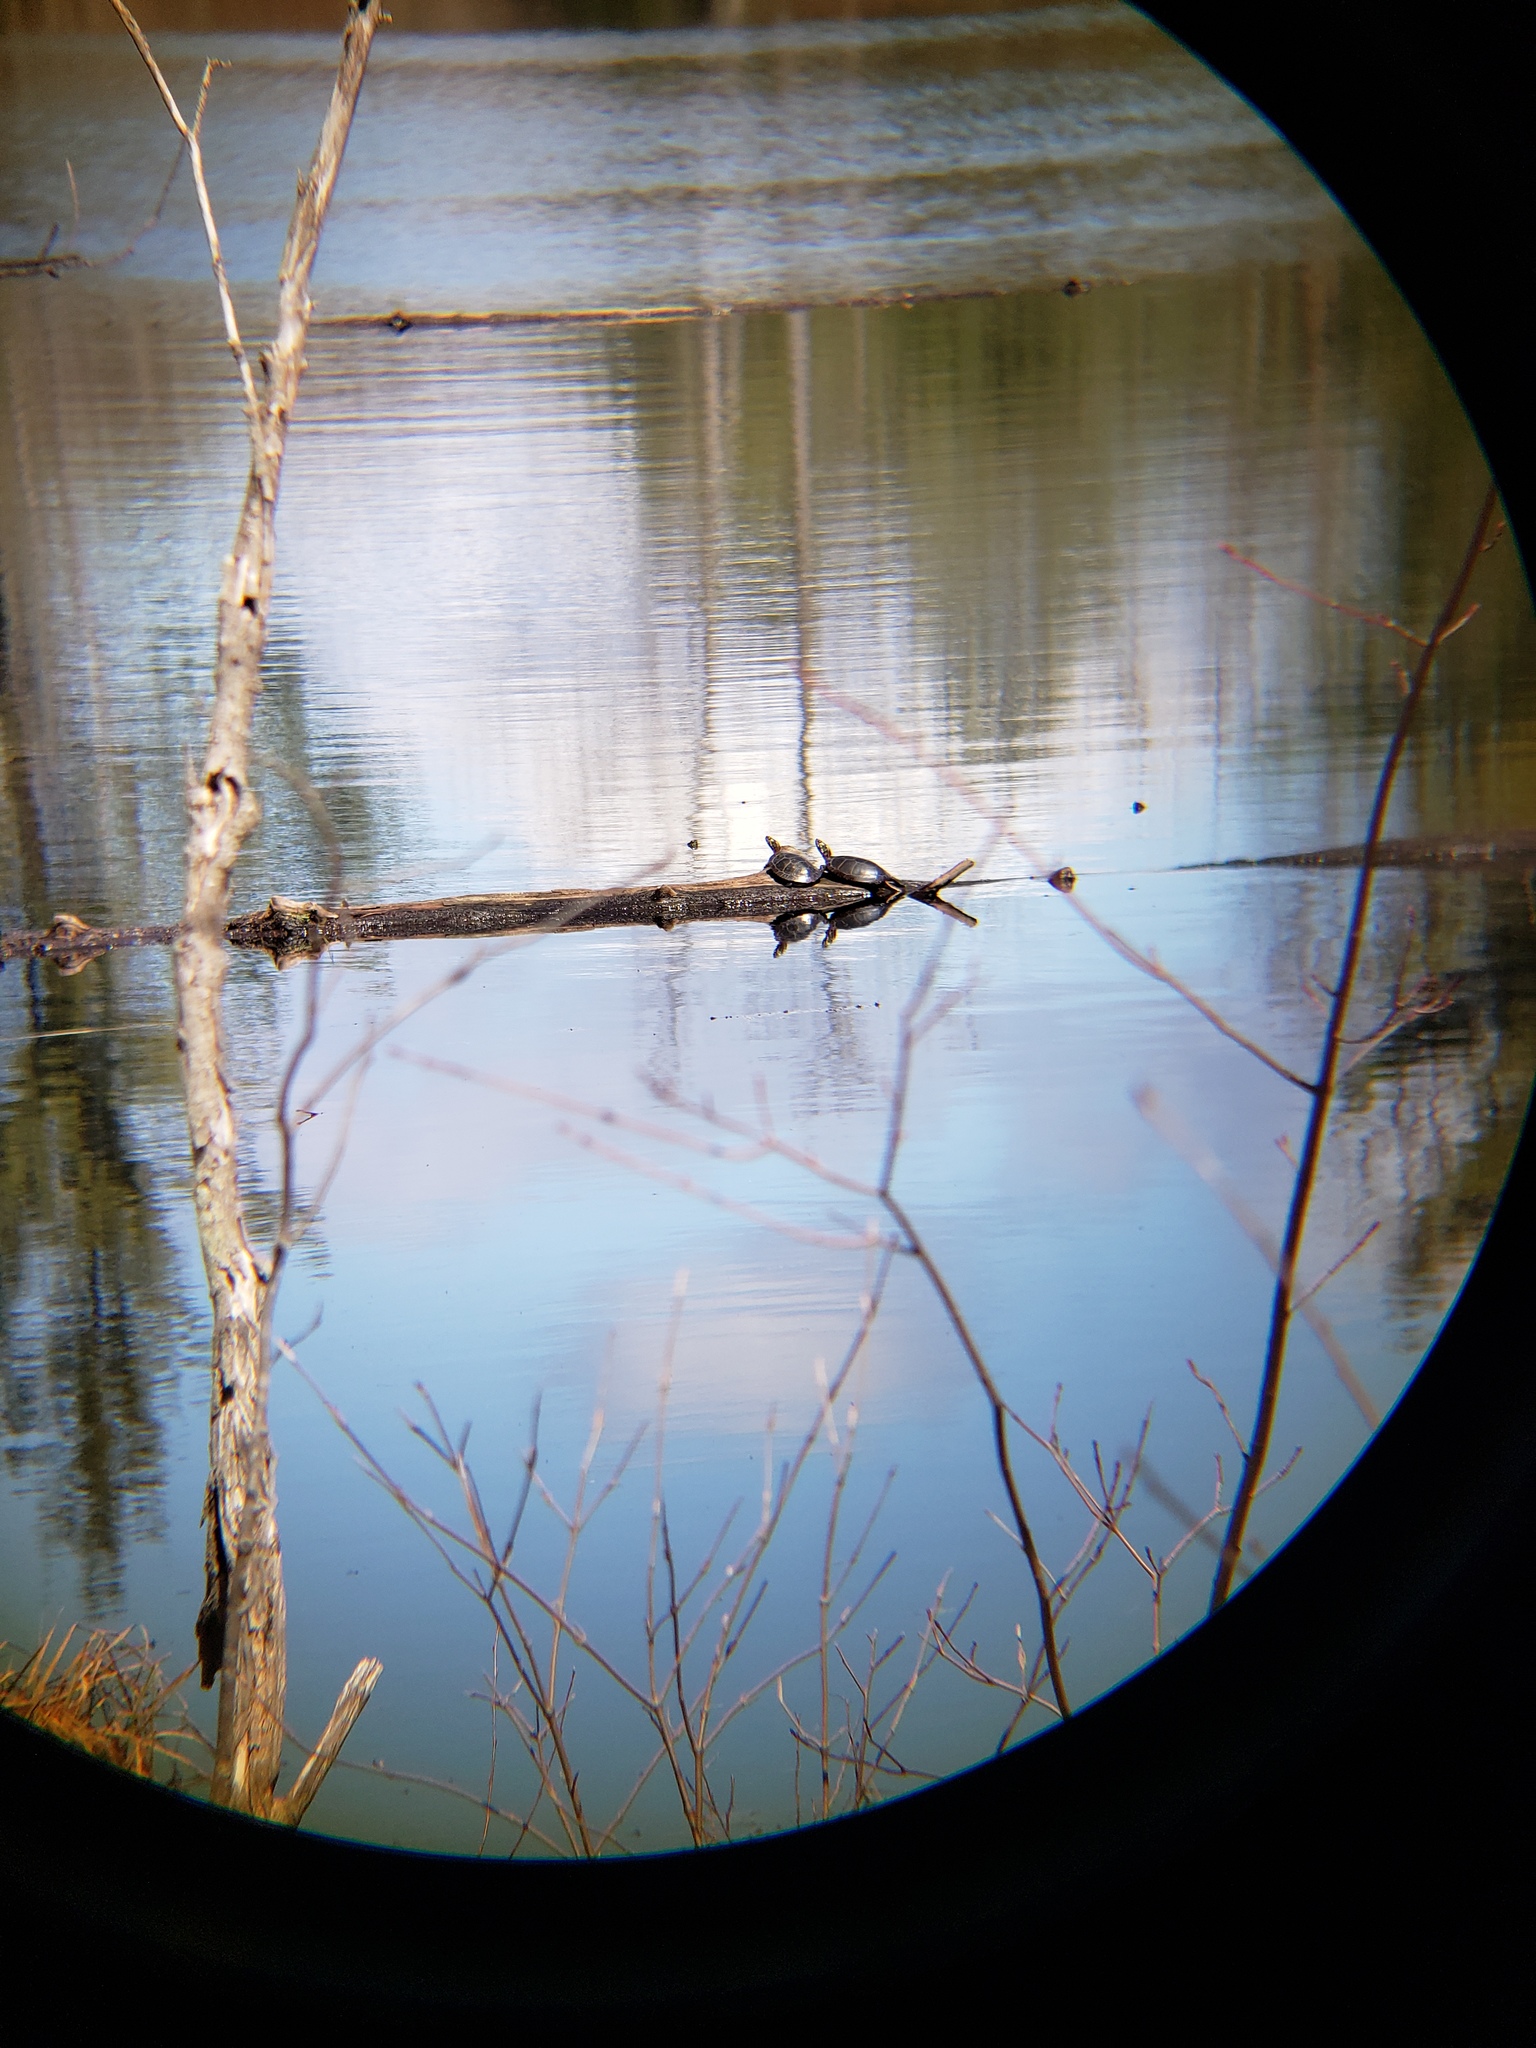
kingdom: Animalia
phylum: Chordata
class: Testudines
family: Emydidae
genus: Chrysemys
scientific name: Chrysemys picta
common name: Painted turtle
